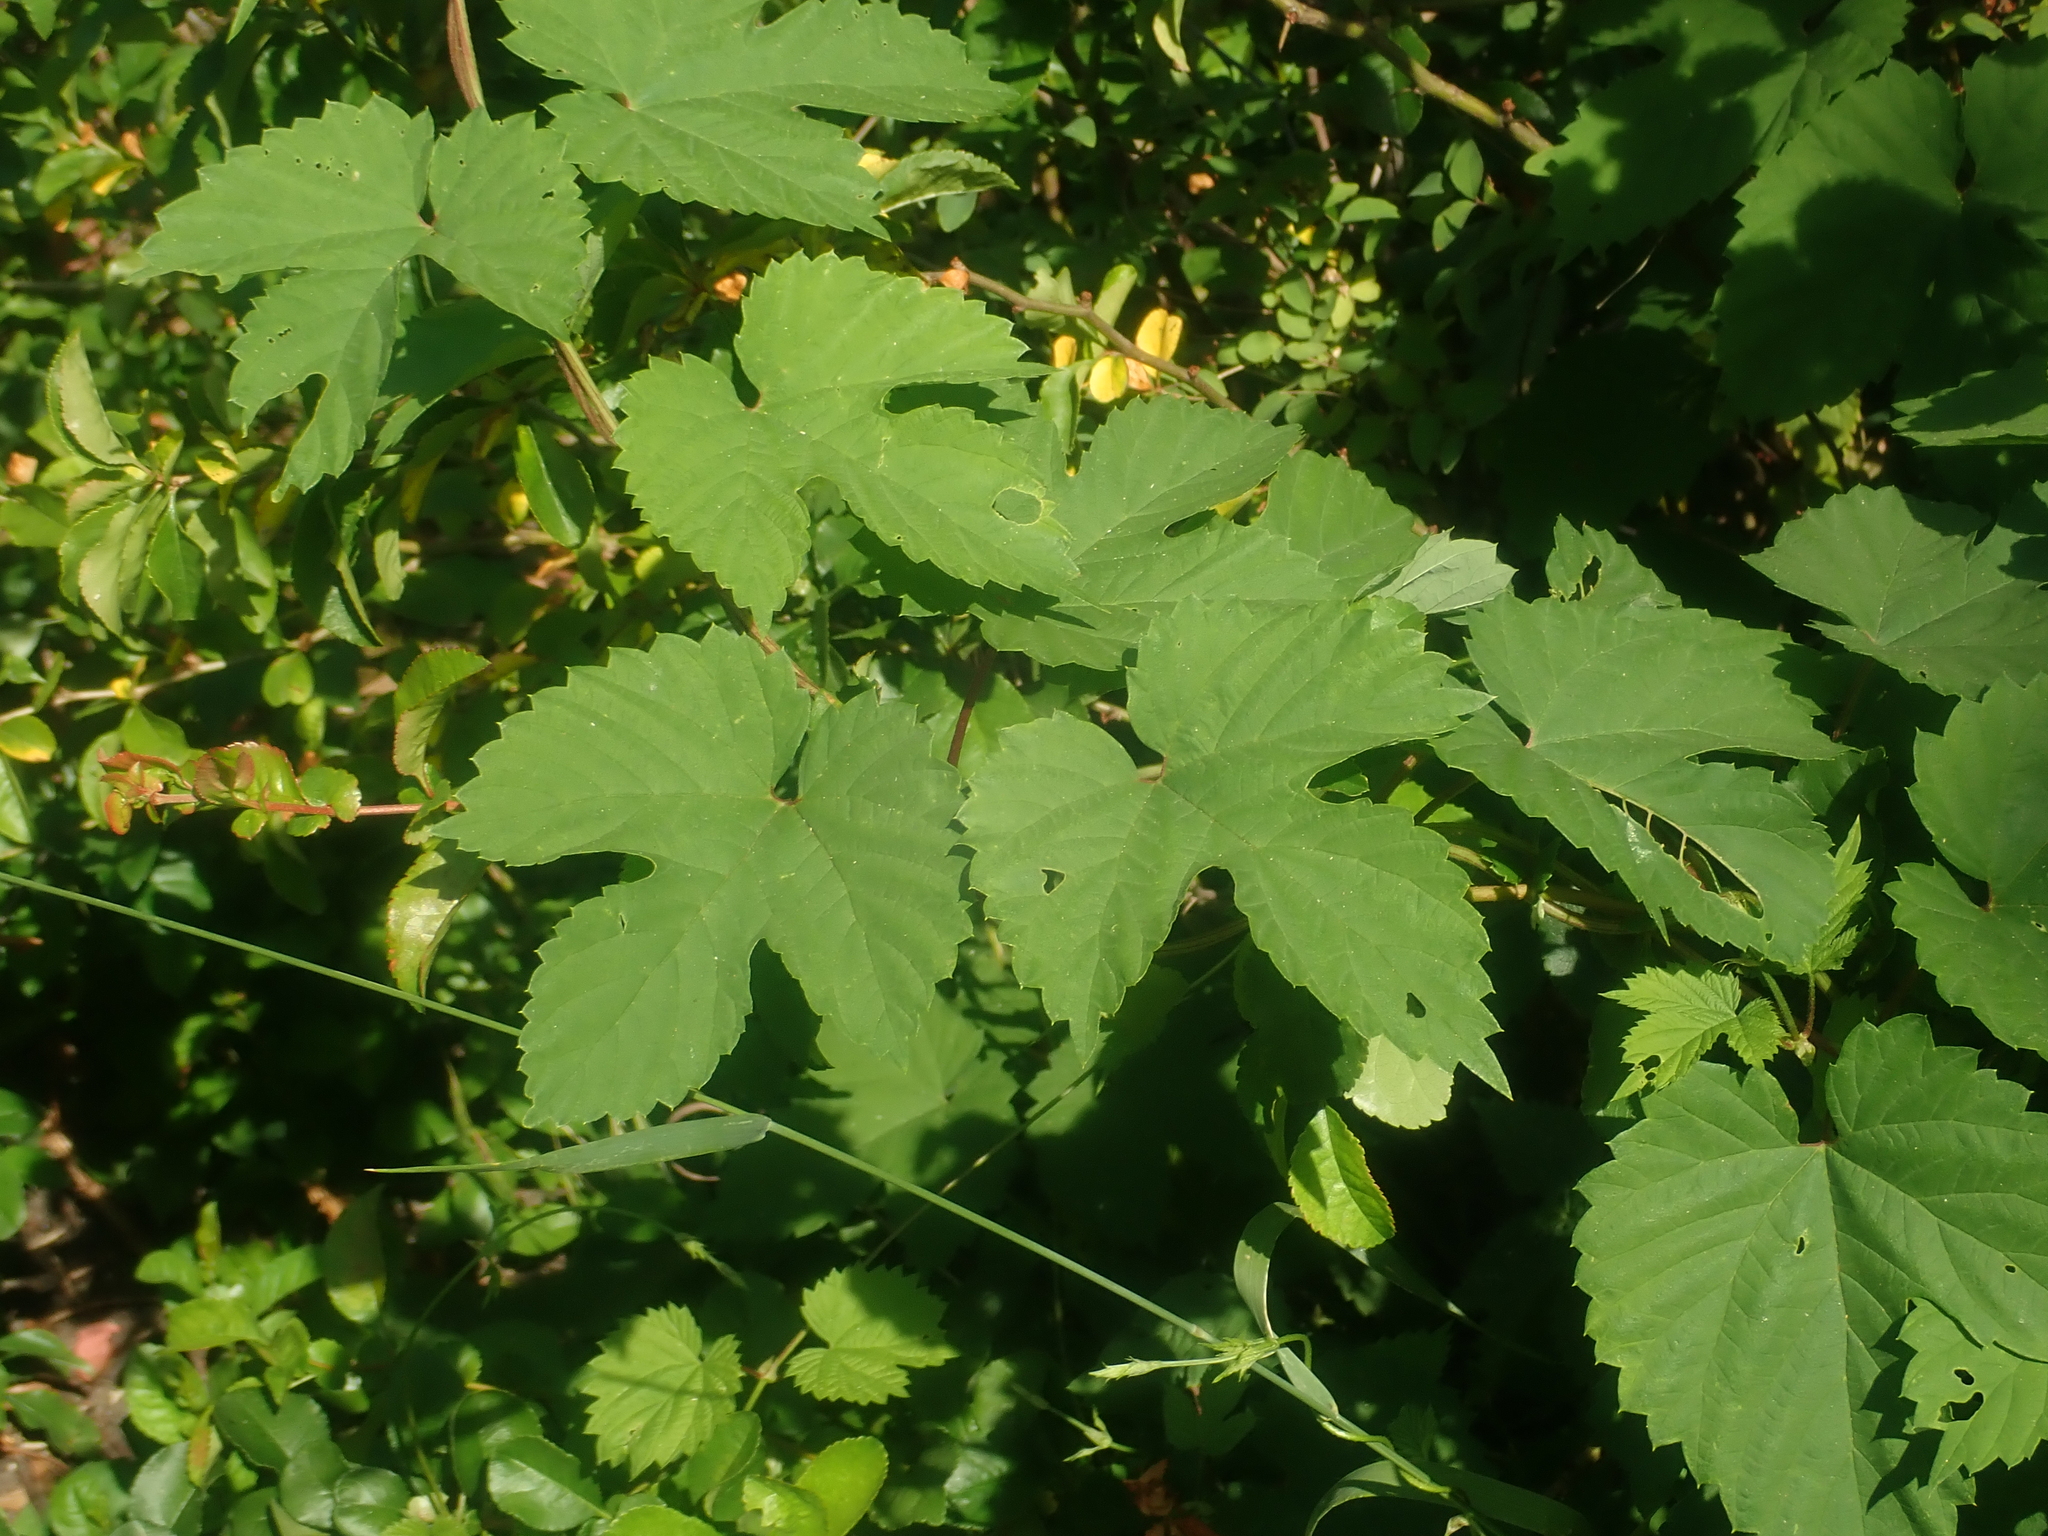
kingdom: Plantae
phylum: Tracheophyta
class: Magnoliopsida
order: Rosales
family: Cannabaceae
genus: Humulus
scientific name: Humulus lupulus
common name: Hop
